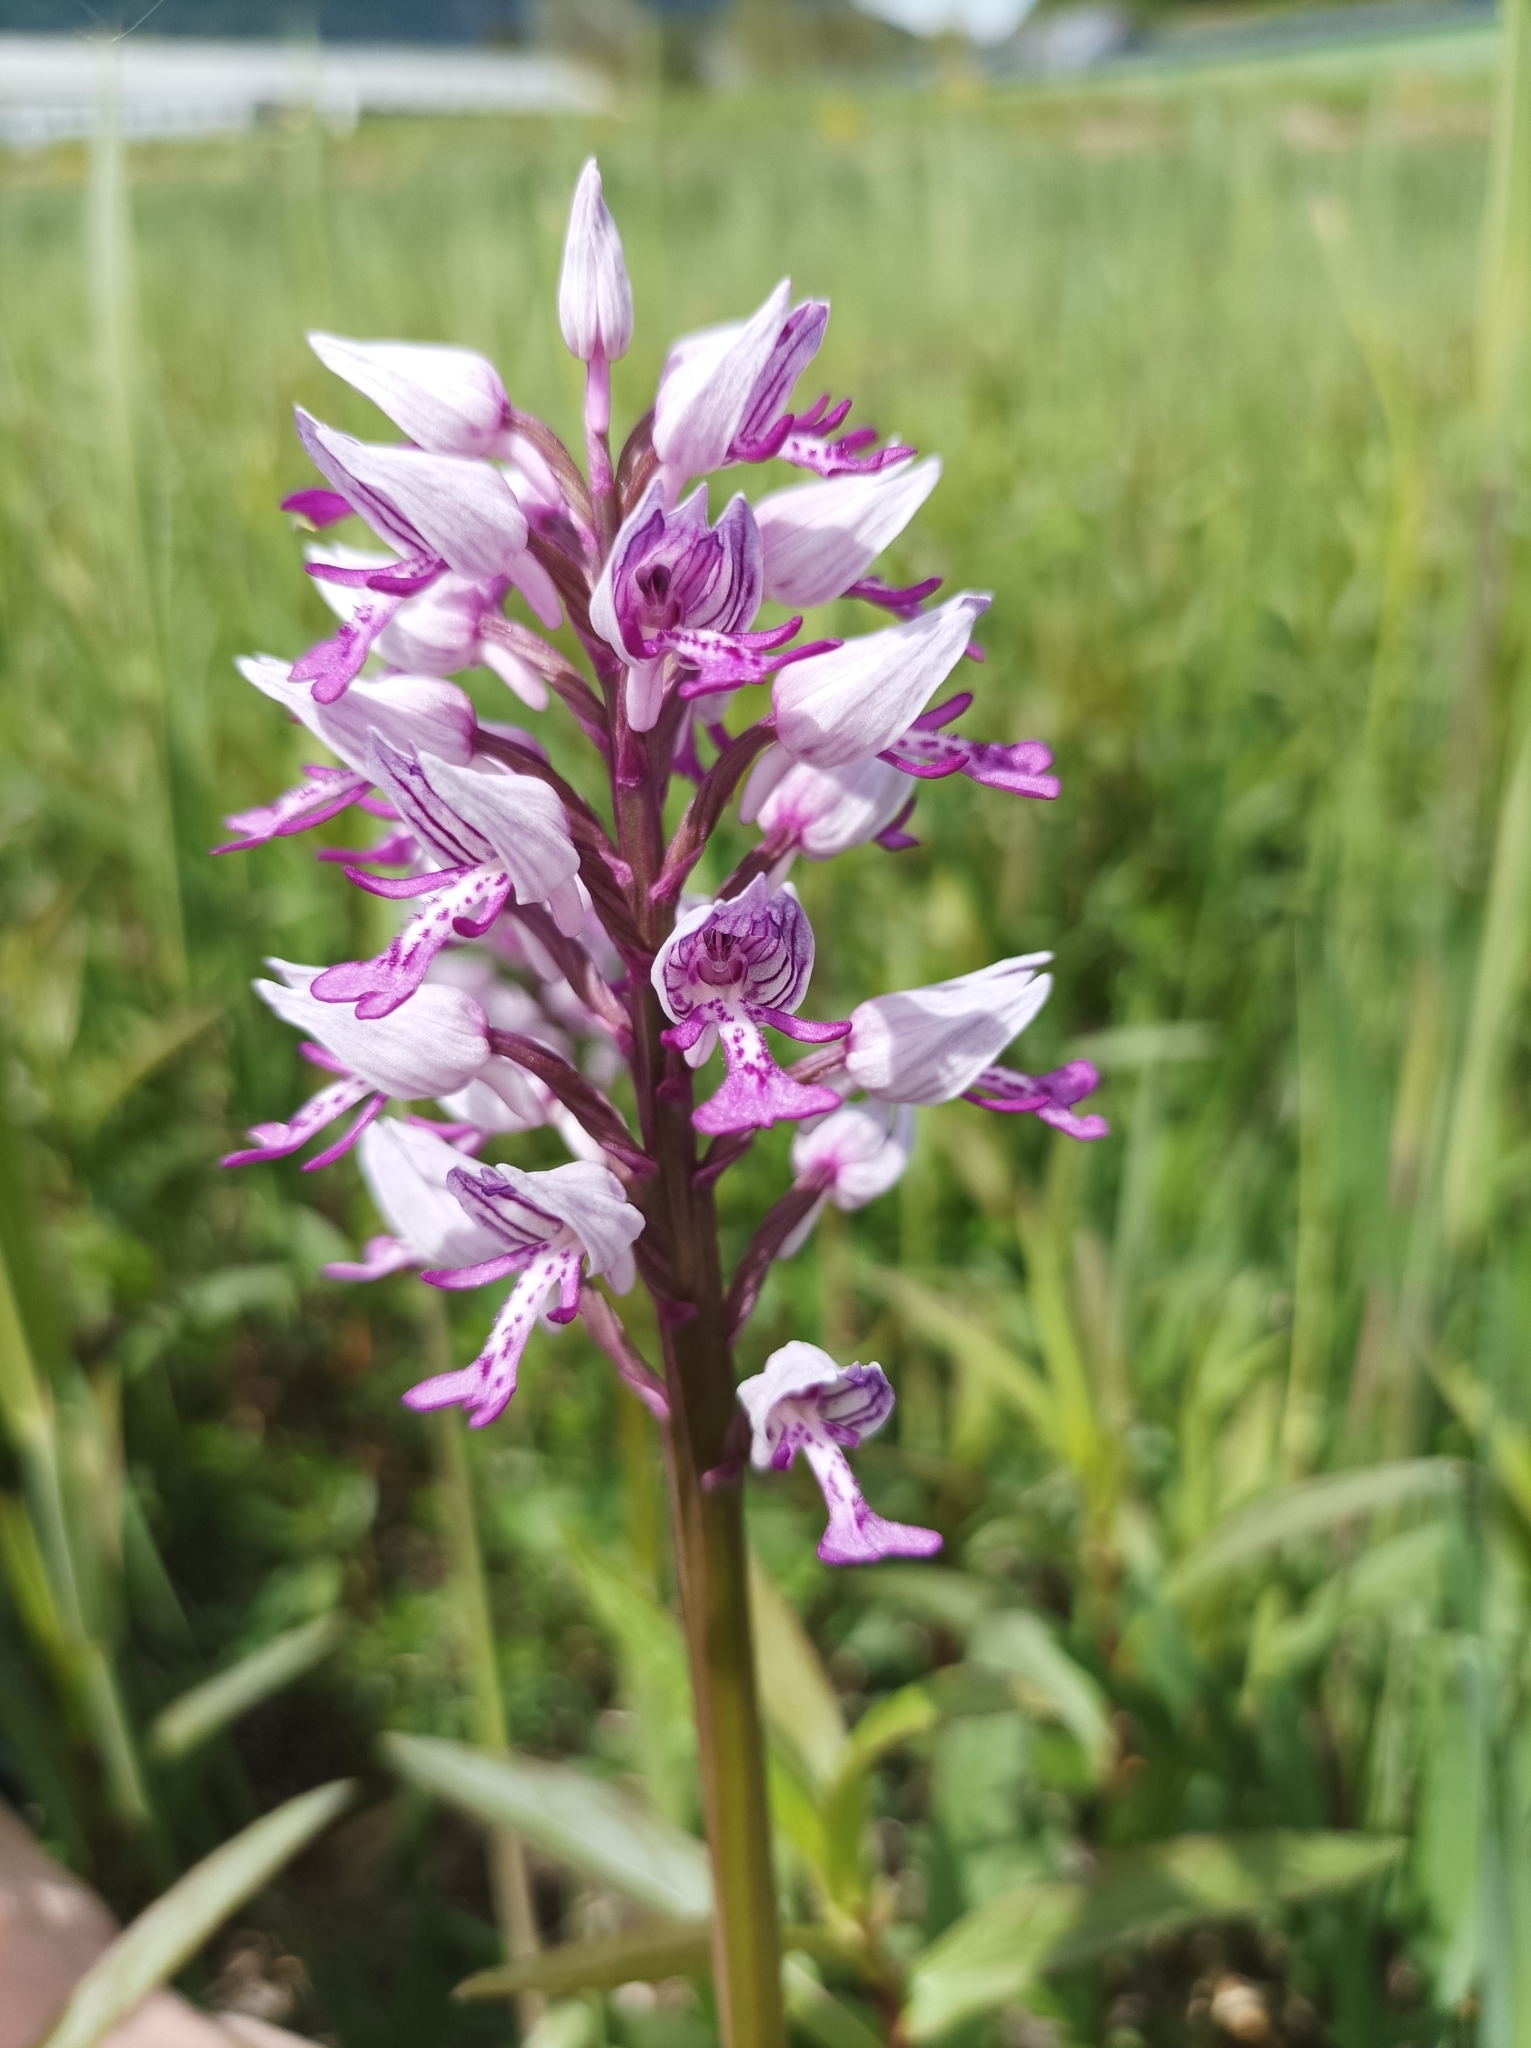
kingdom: Plantae
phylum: Tracheophyta
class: Liliopsida
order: Asparagales
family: Orchidaceae
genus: Orchis
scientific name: Orchis militaris
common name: Military orchid
